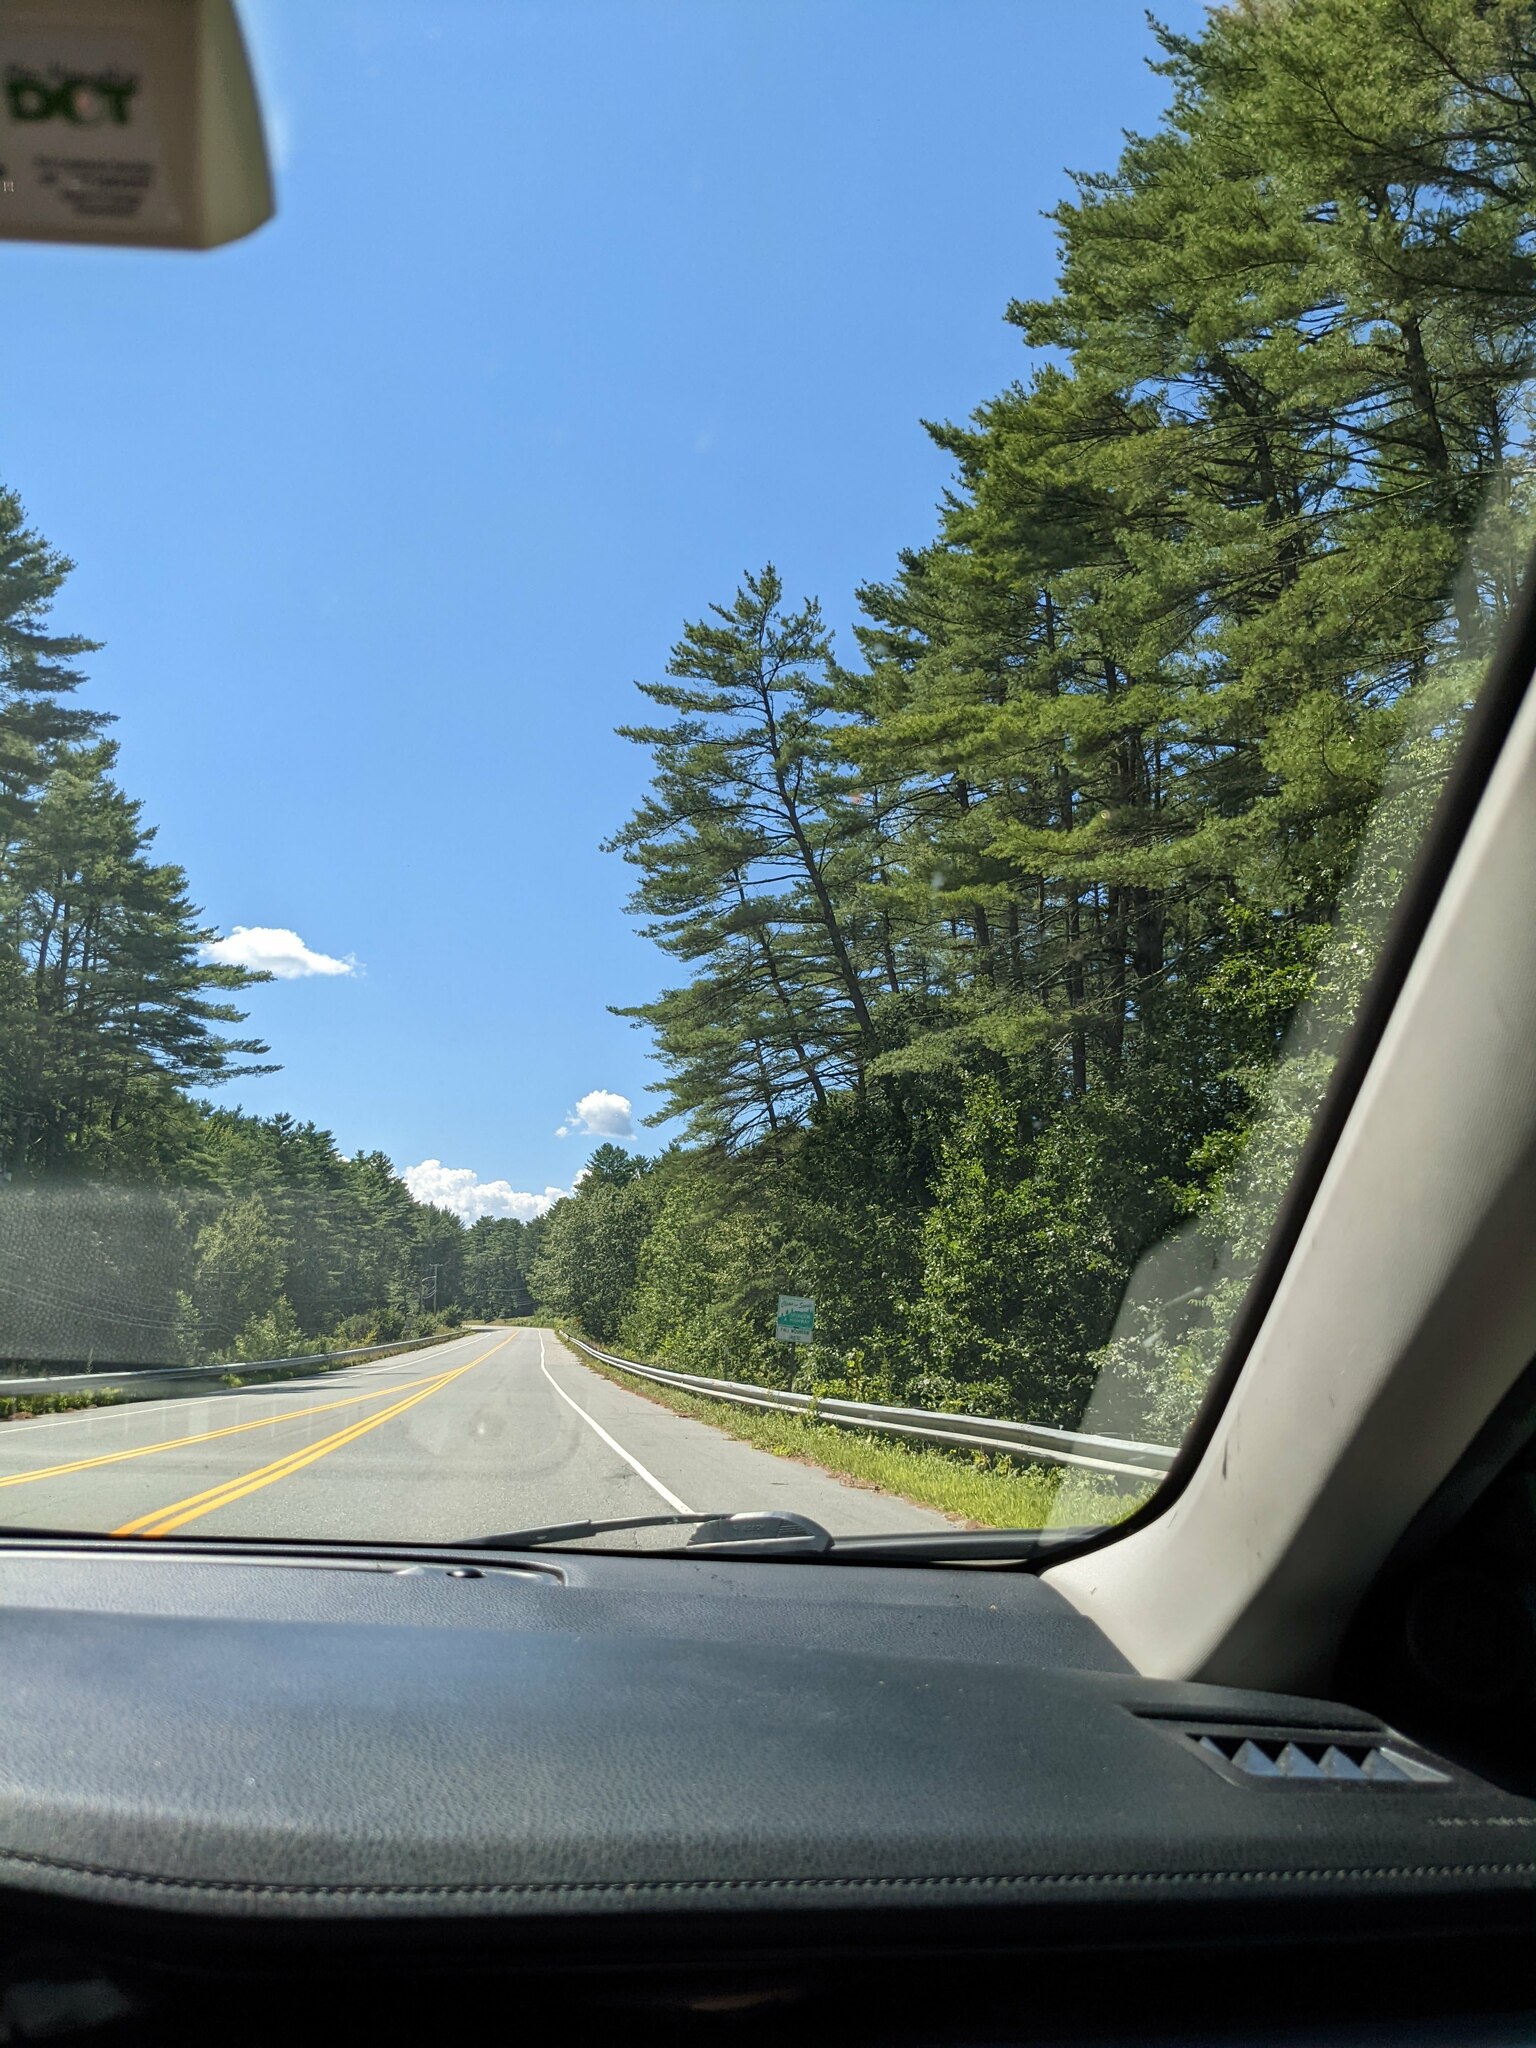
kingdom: Plantae
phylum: Tracheophyta
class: Pinopsida
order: Pinales
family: Pinaceae
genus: Pinus
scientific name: Pinus strobus
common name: Weymouth pine
